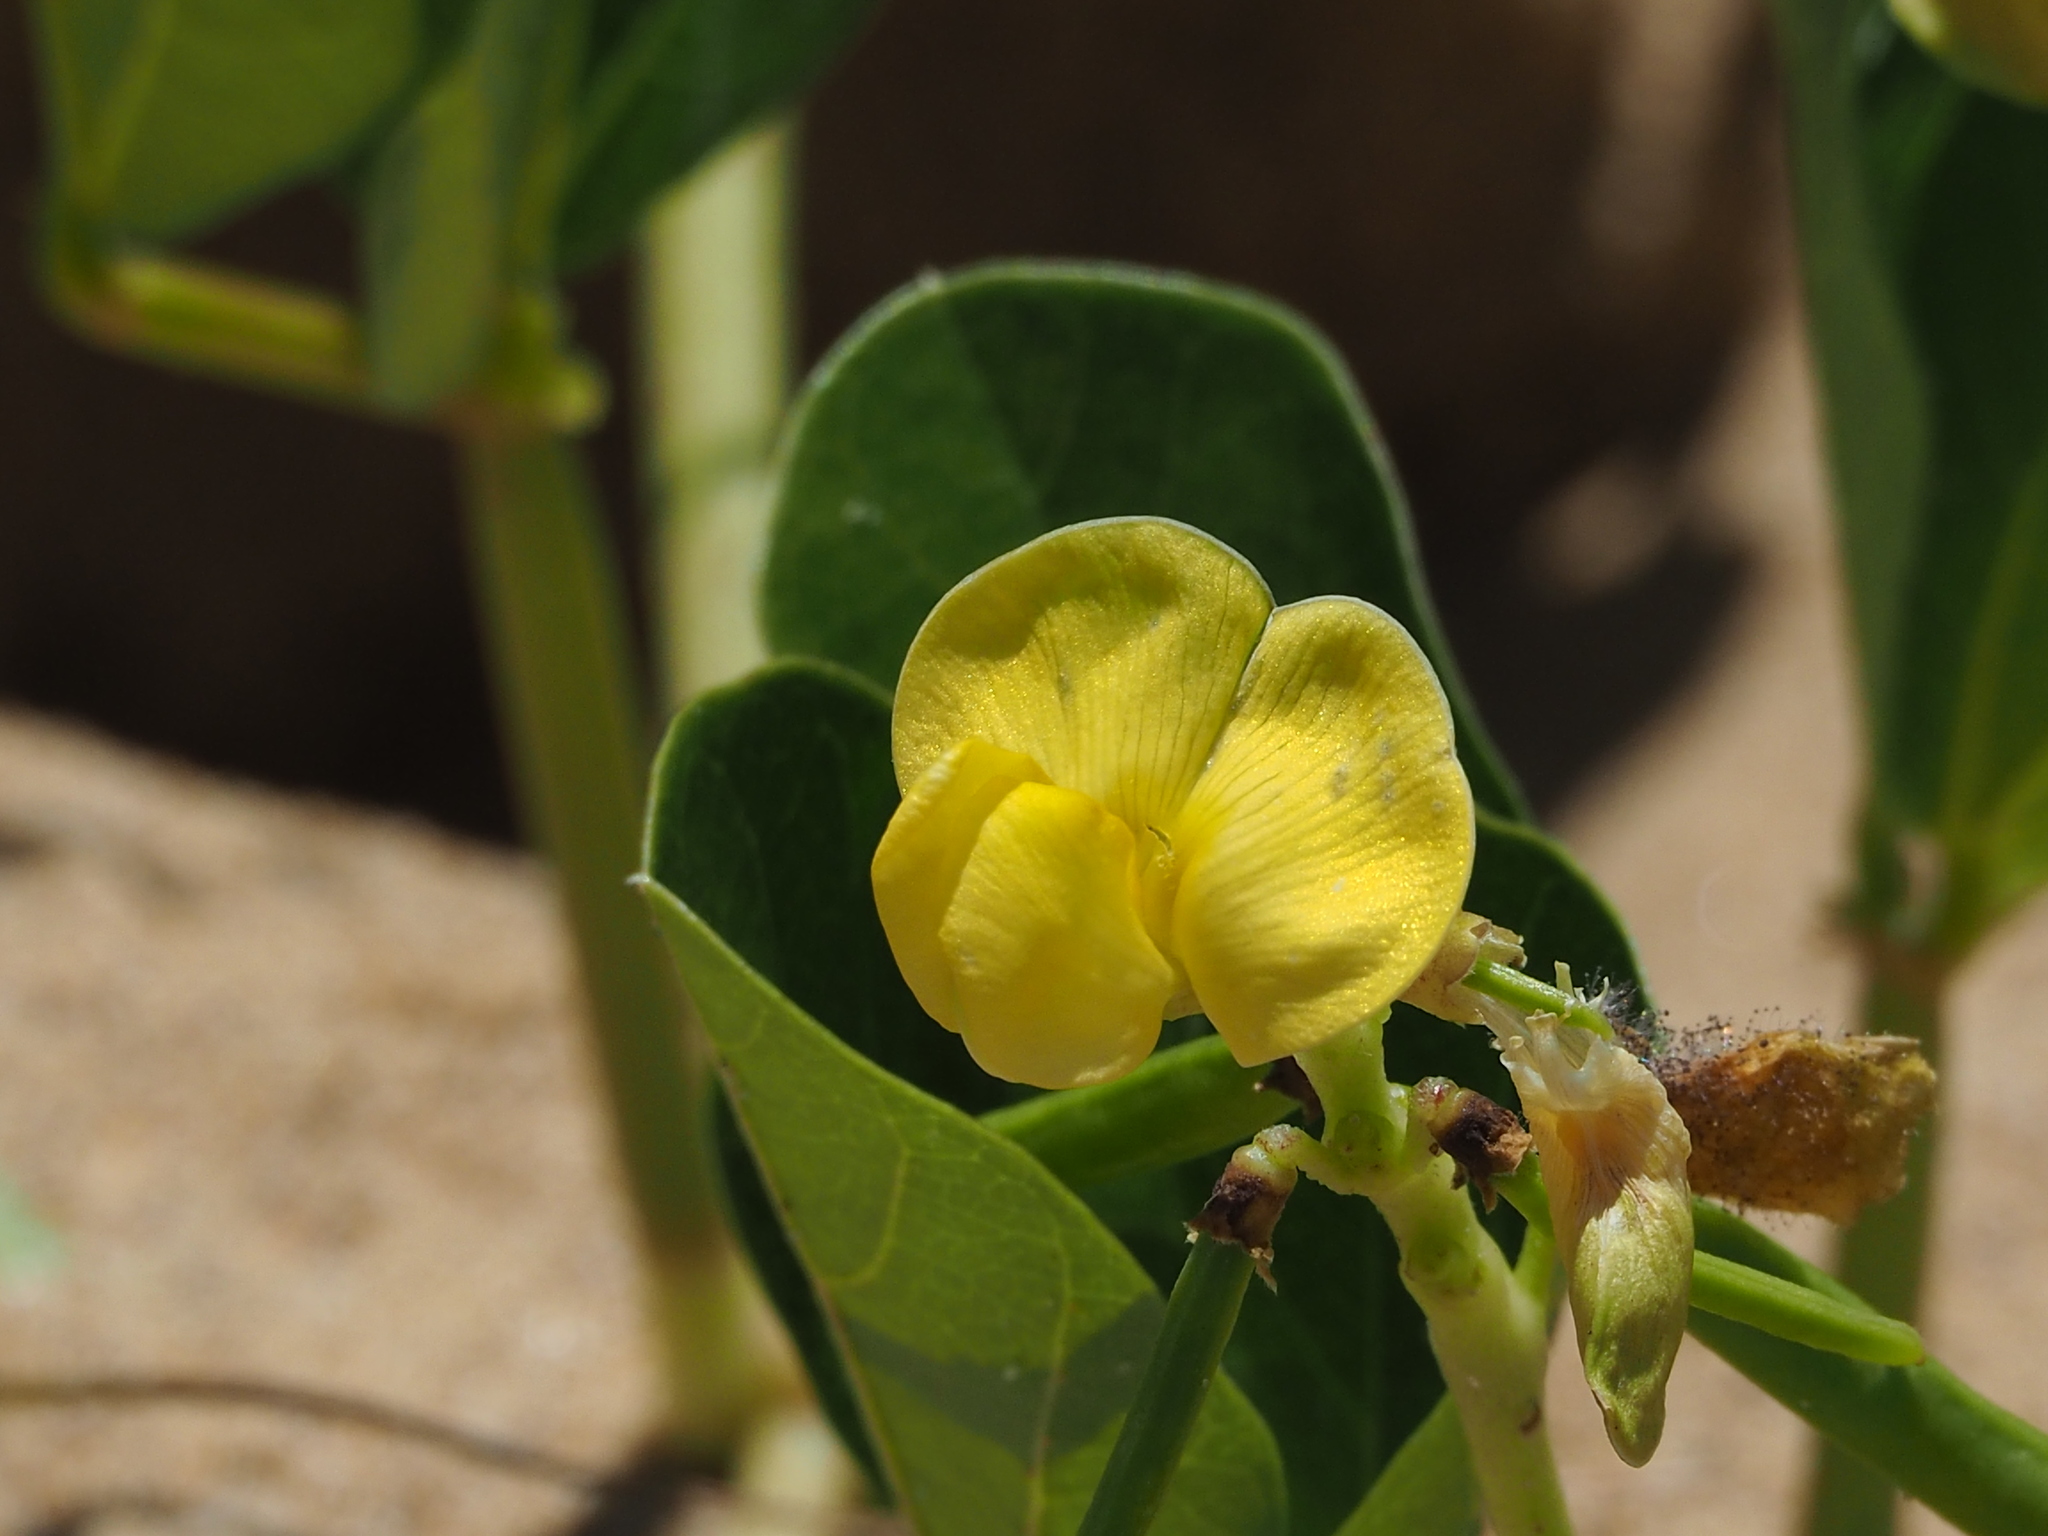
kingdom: Plantae
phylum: Tracheophyta
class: Magnoliopsida
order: Fabales
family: Fabaceae
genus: Vigna
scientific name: Vigna marina
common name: Dune-bean
